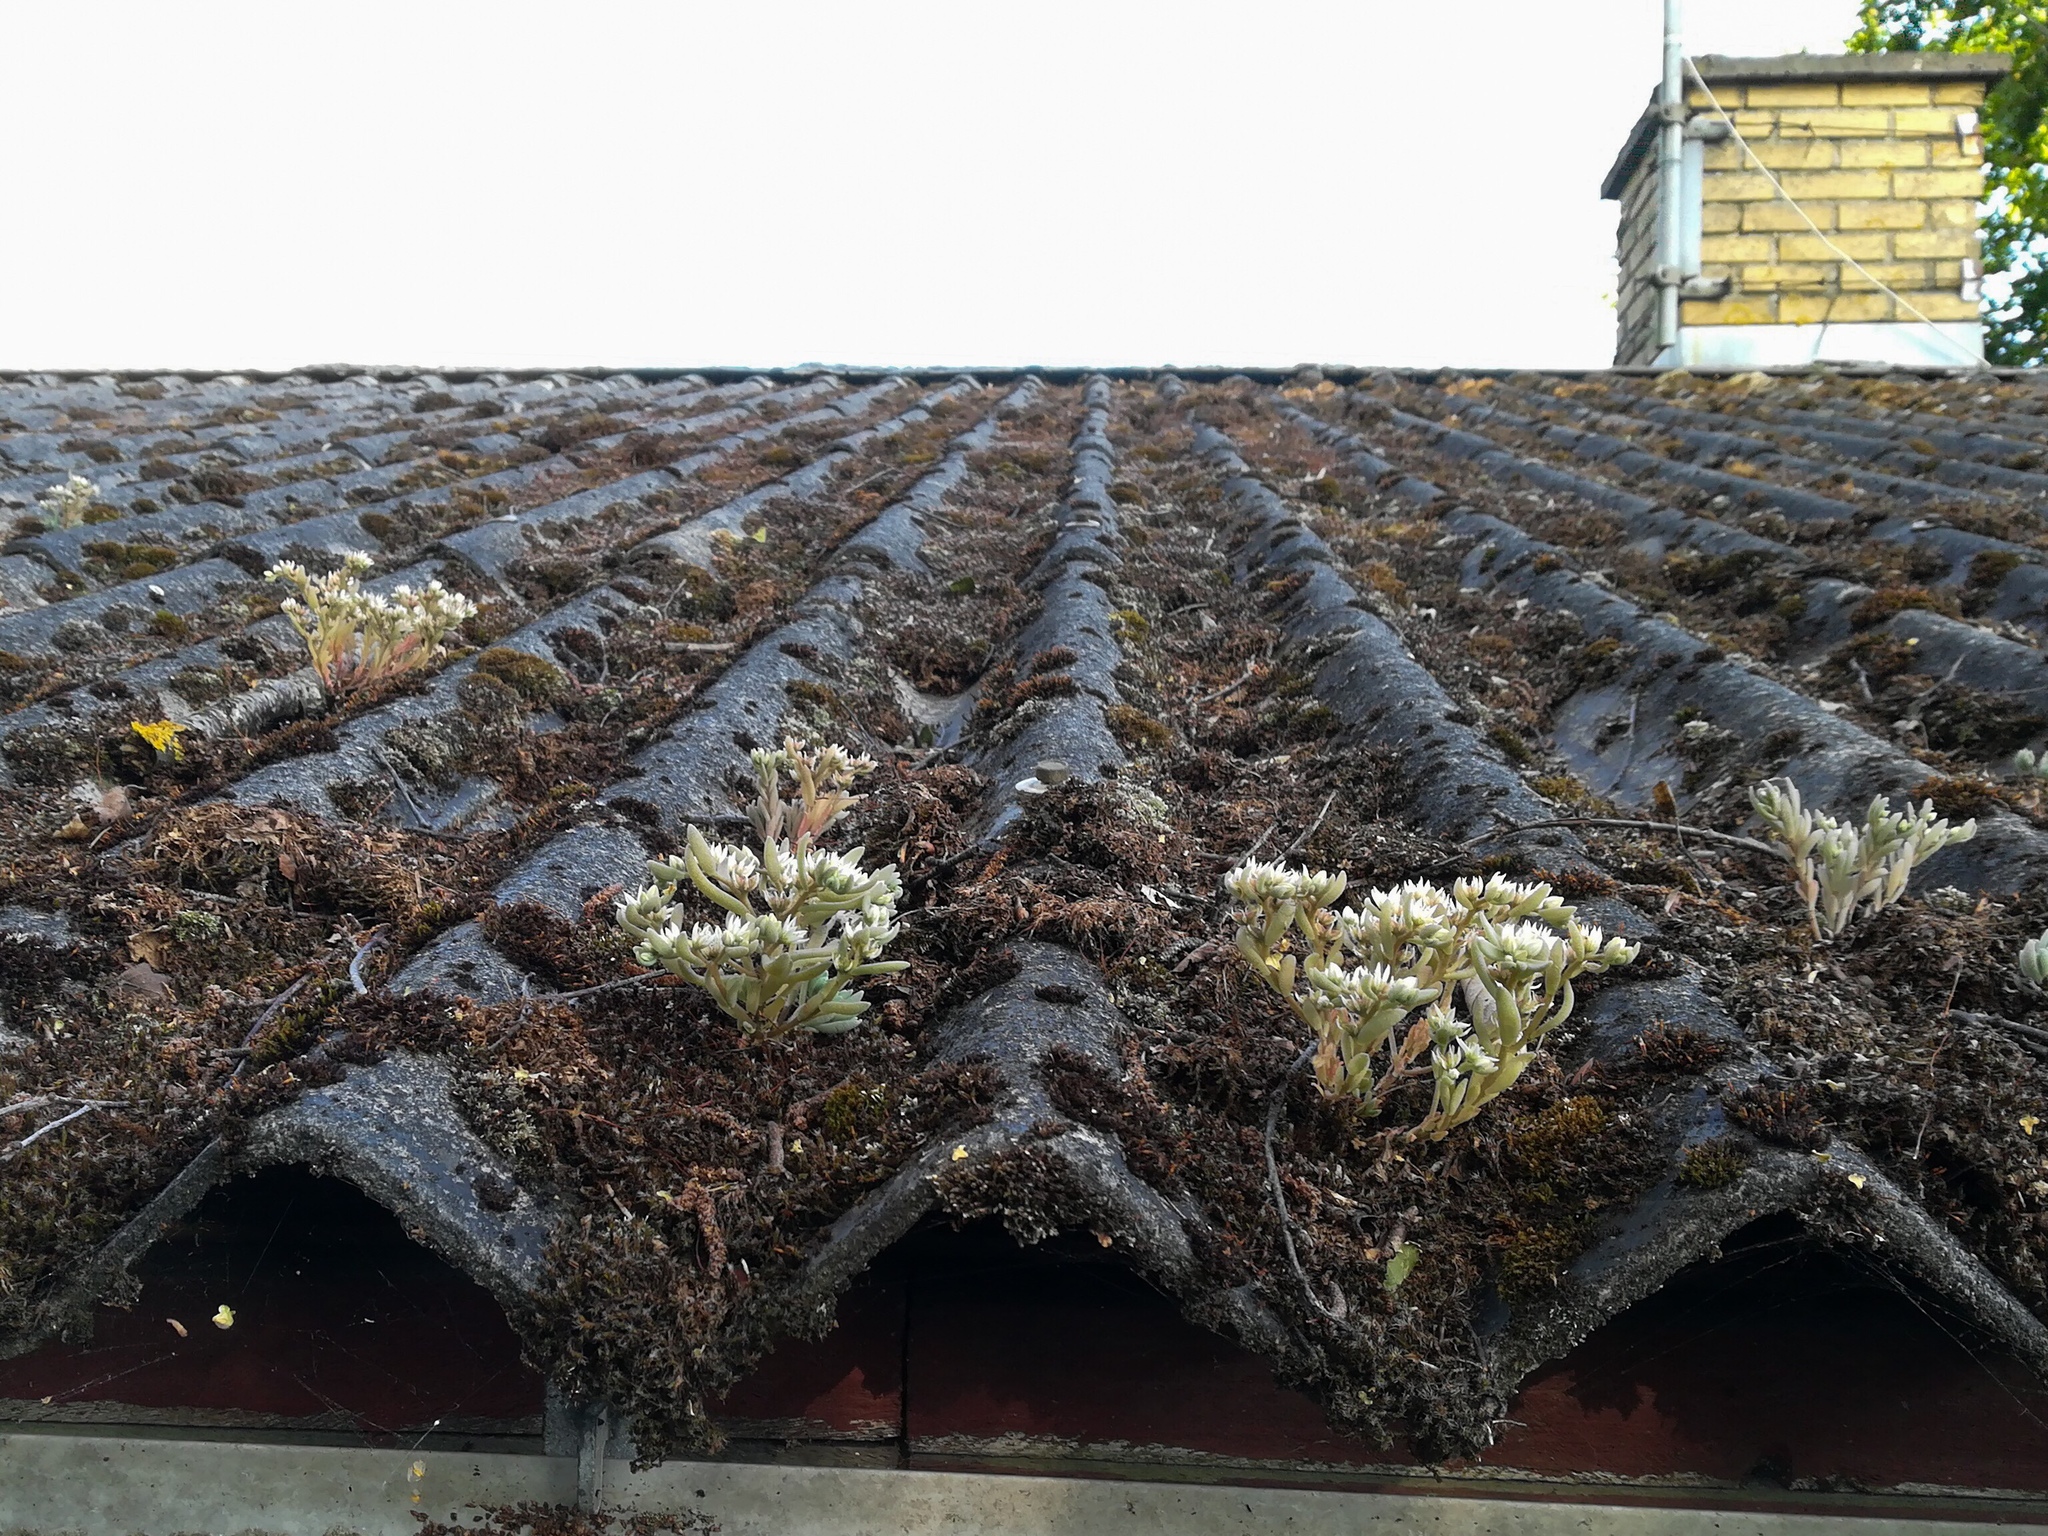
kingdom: Plantae
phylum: Tracheophyta
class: Magnoliopsida
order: Saxifragales
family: Crassulaceae
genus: Sedum
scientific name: Sedum hispanicum
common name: Spanish stonecrop
